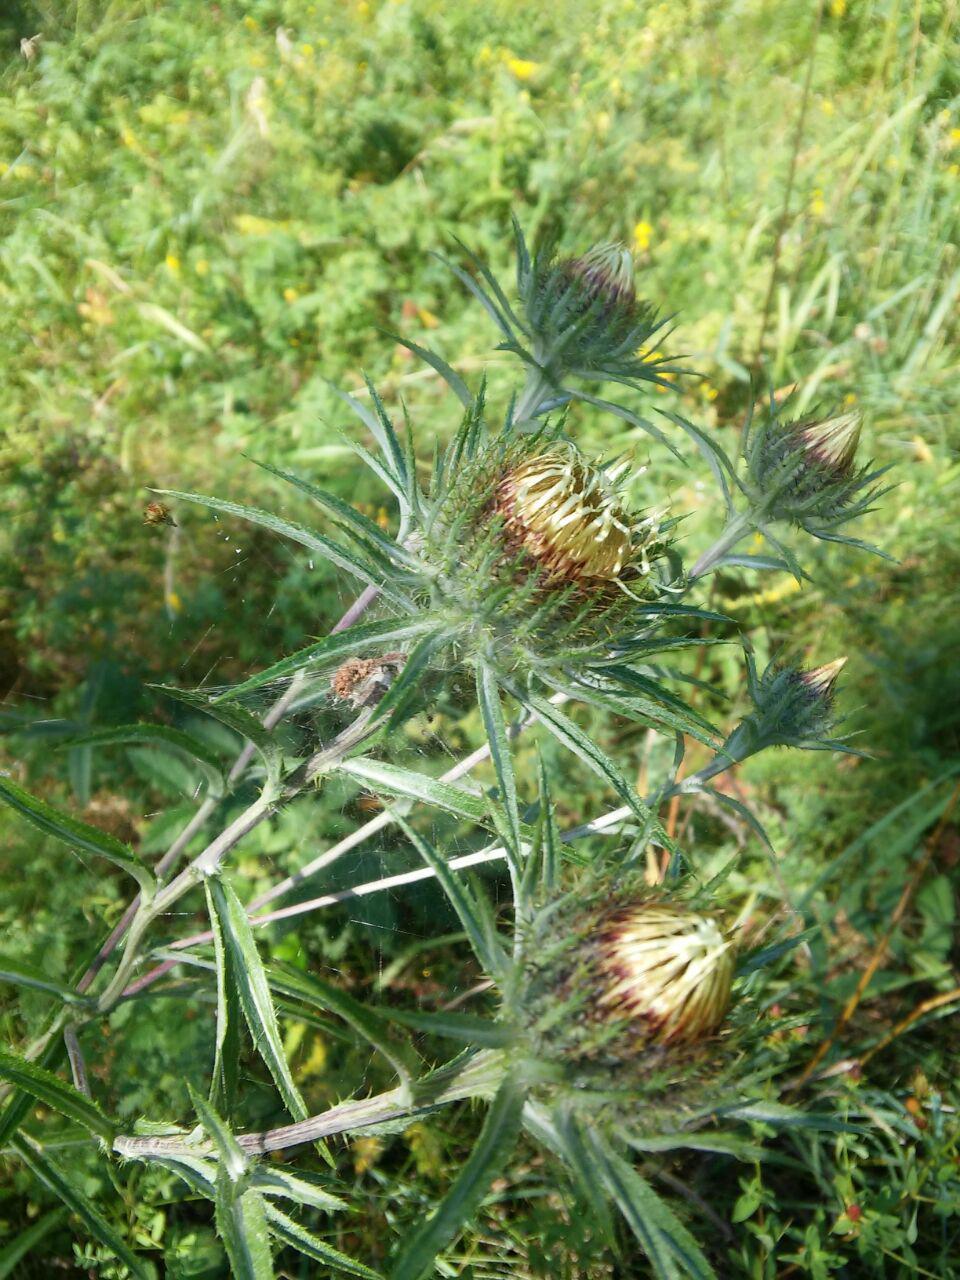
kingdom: Plantae
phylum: Tracheophyta
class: Magnoliopsida
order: Asterales
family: Asteraceae
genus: Carlina
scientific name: Carlina biebersteinii
